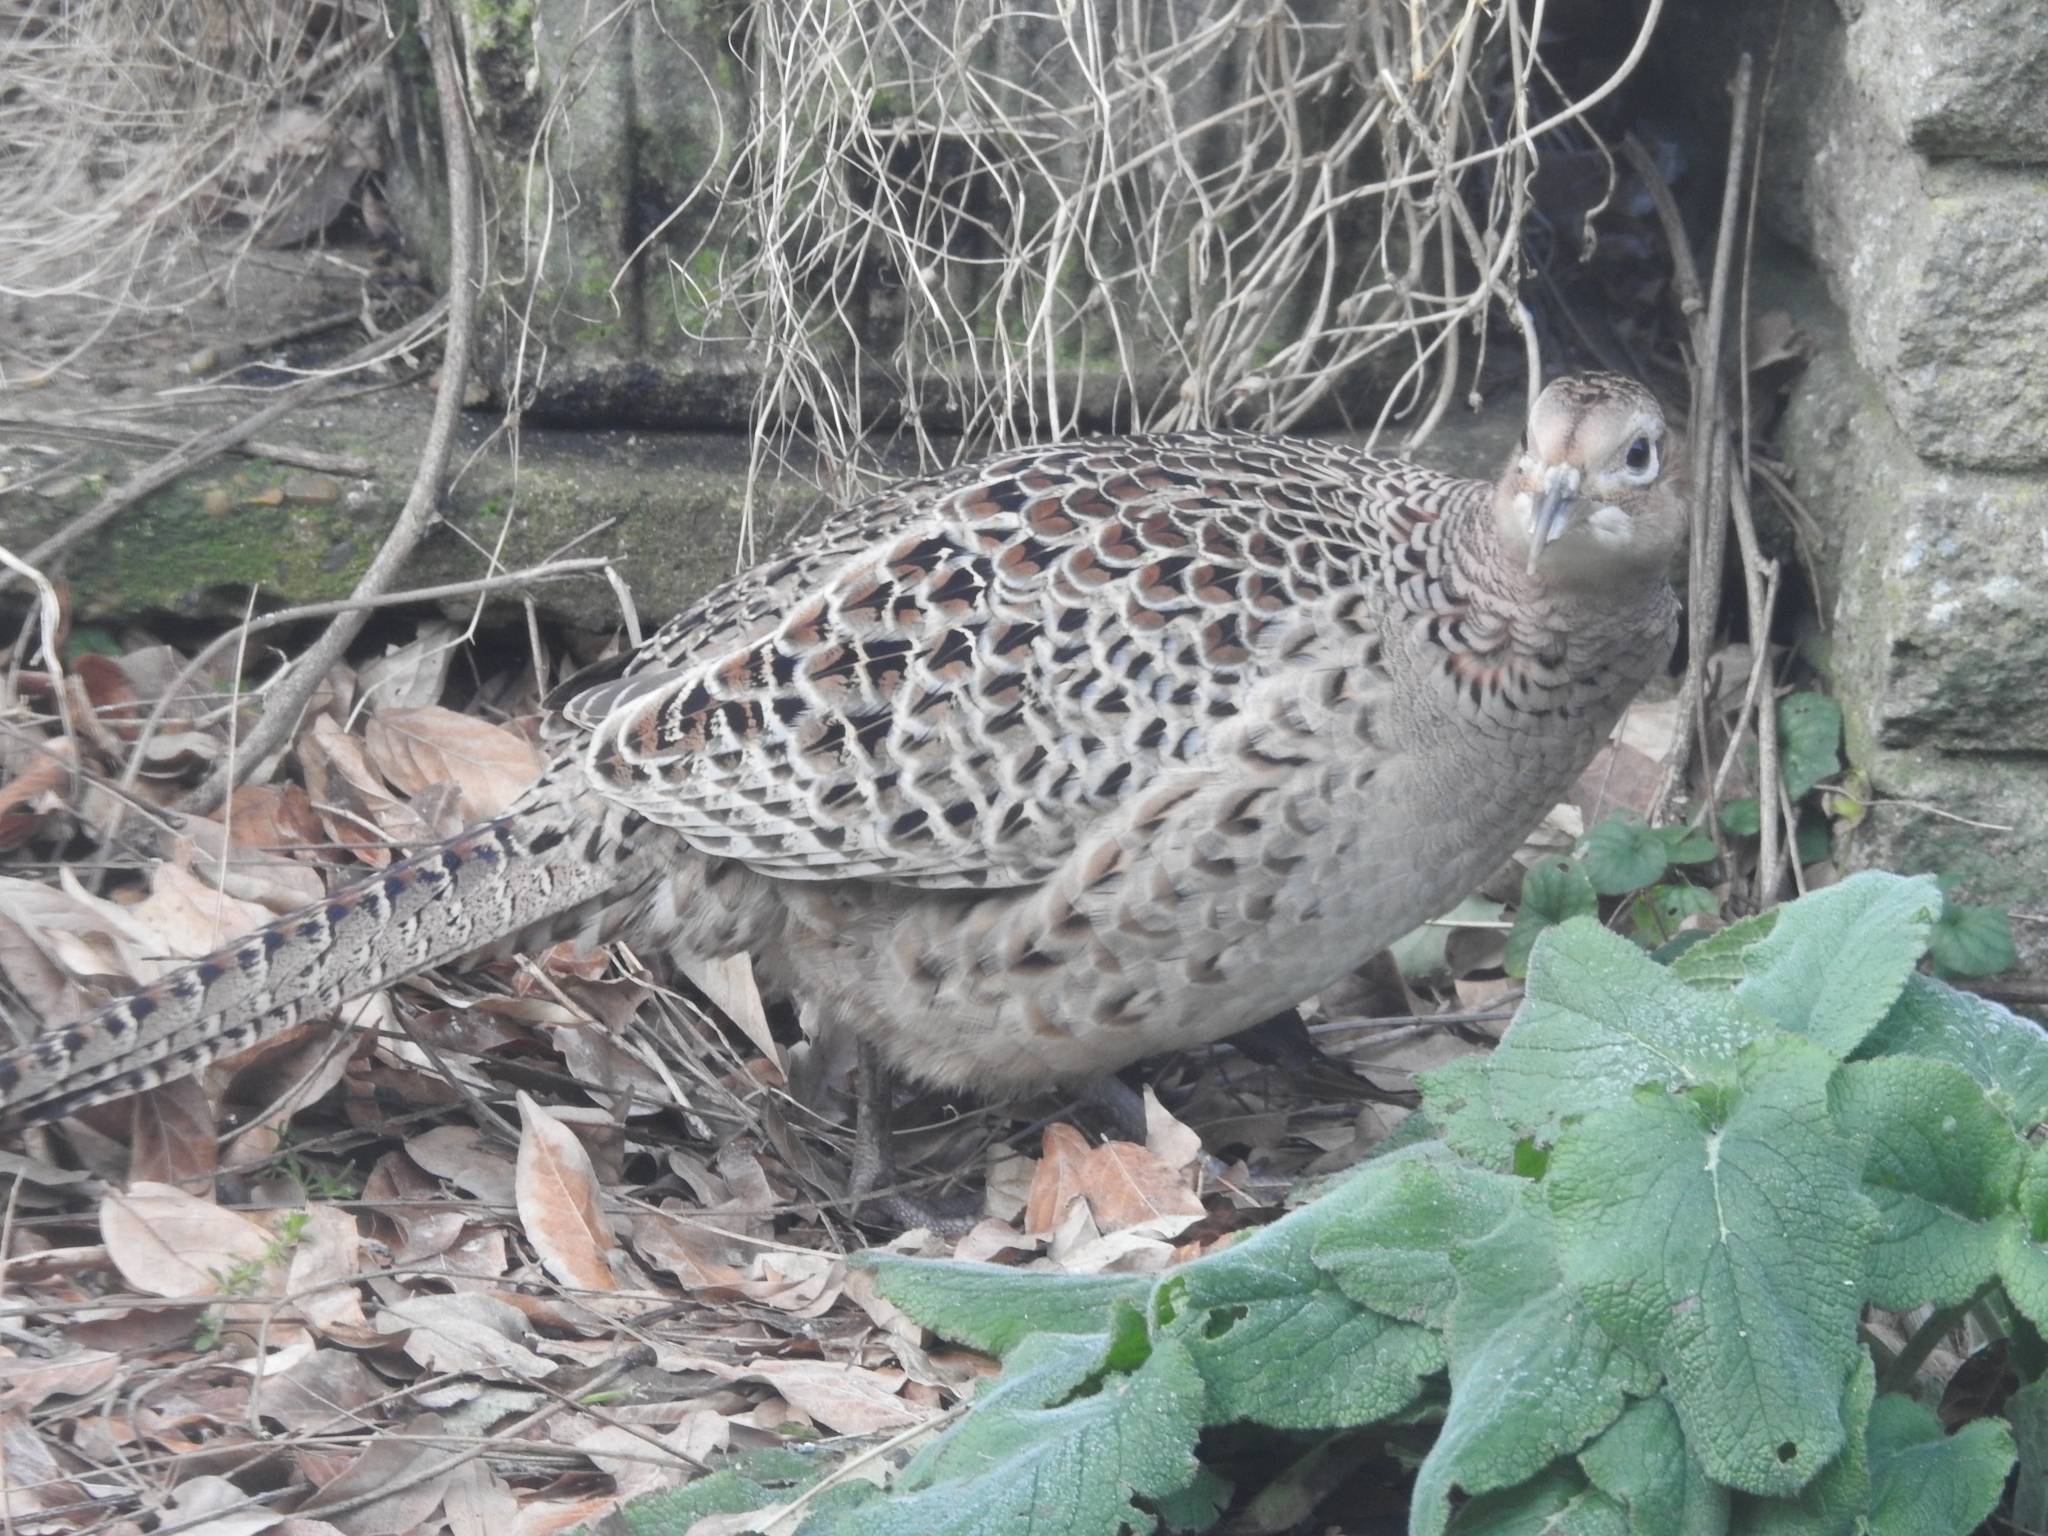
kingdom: Animalia
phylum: Chordata
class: Aves
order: Galliformes
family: Phasianidae
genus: Phasianus
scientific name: Phasianus colchicus
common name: Common pheasant
